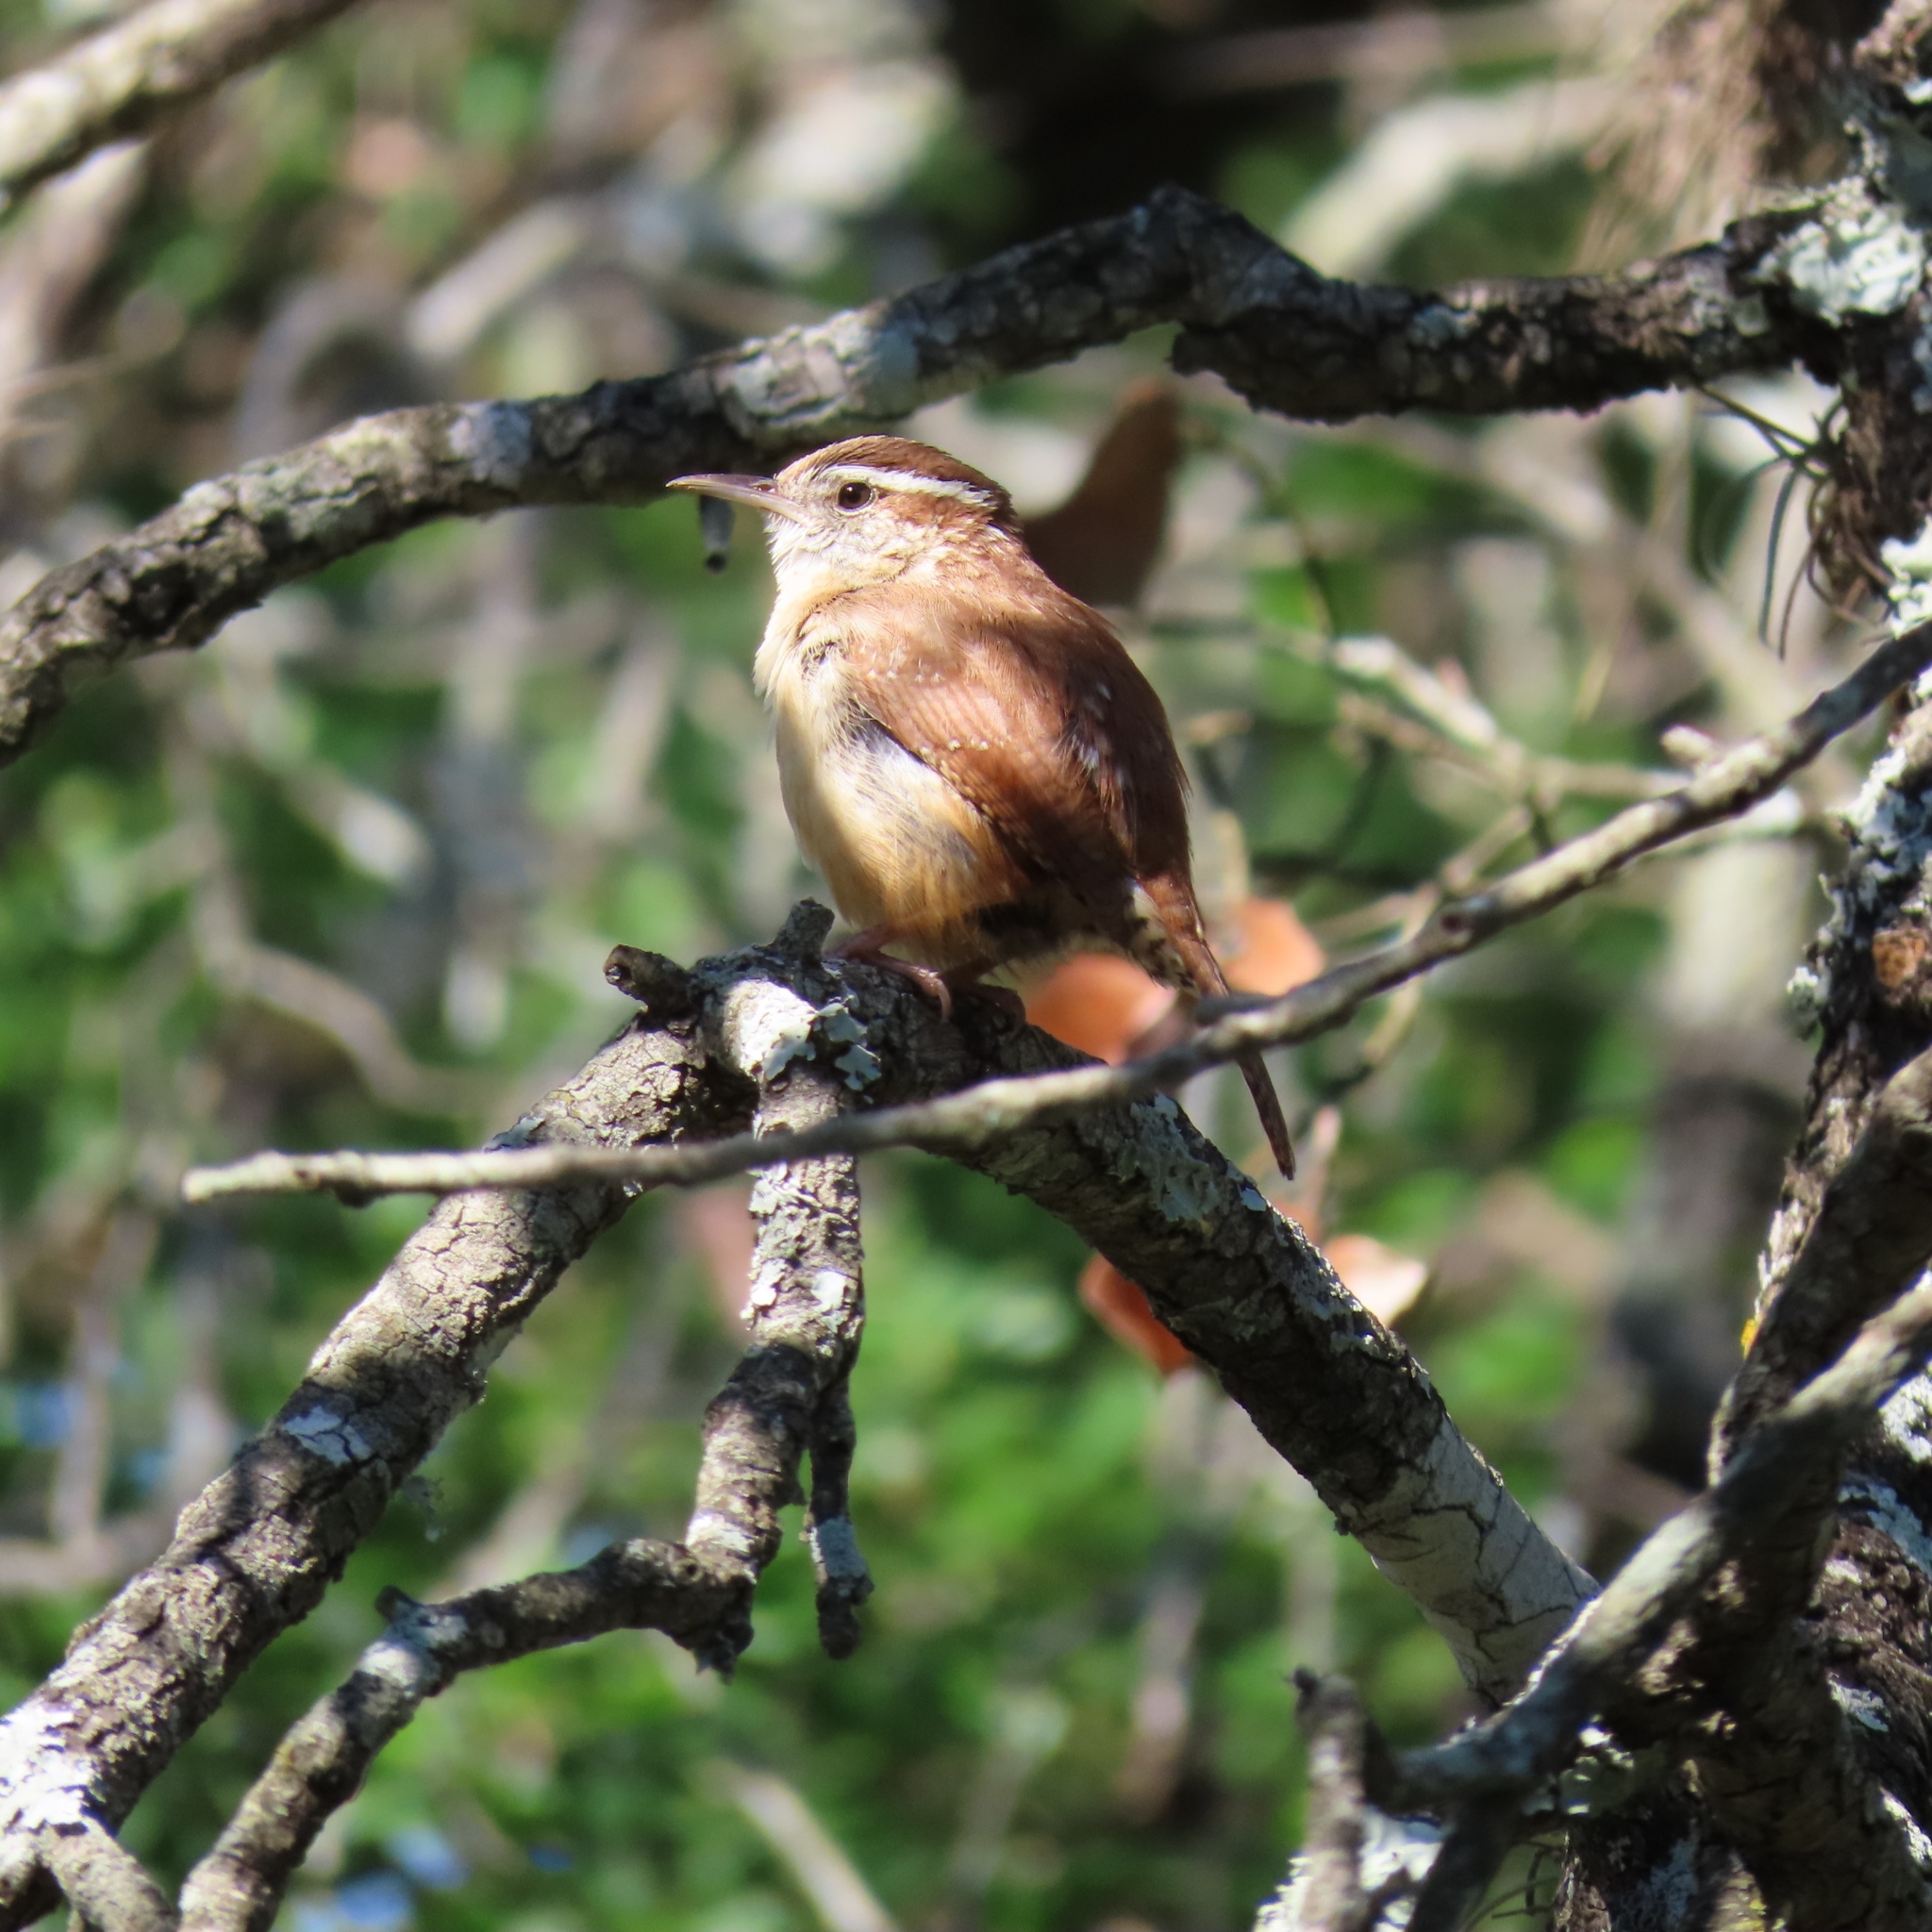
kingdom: Animalia
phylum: Chordata
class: Aves
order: Passeriformes
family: Troglodytidae
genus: Thryothorus
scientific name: Thryothorus ludovicianus
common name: Carolina wren
